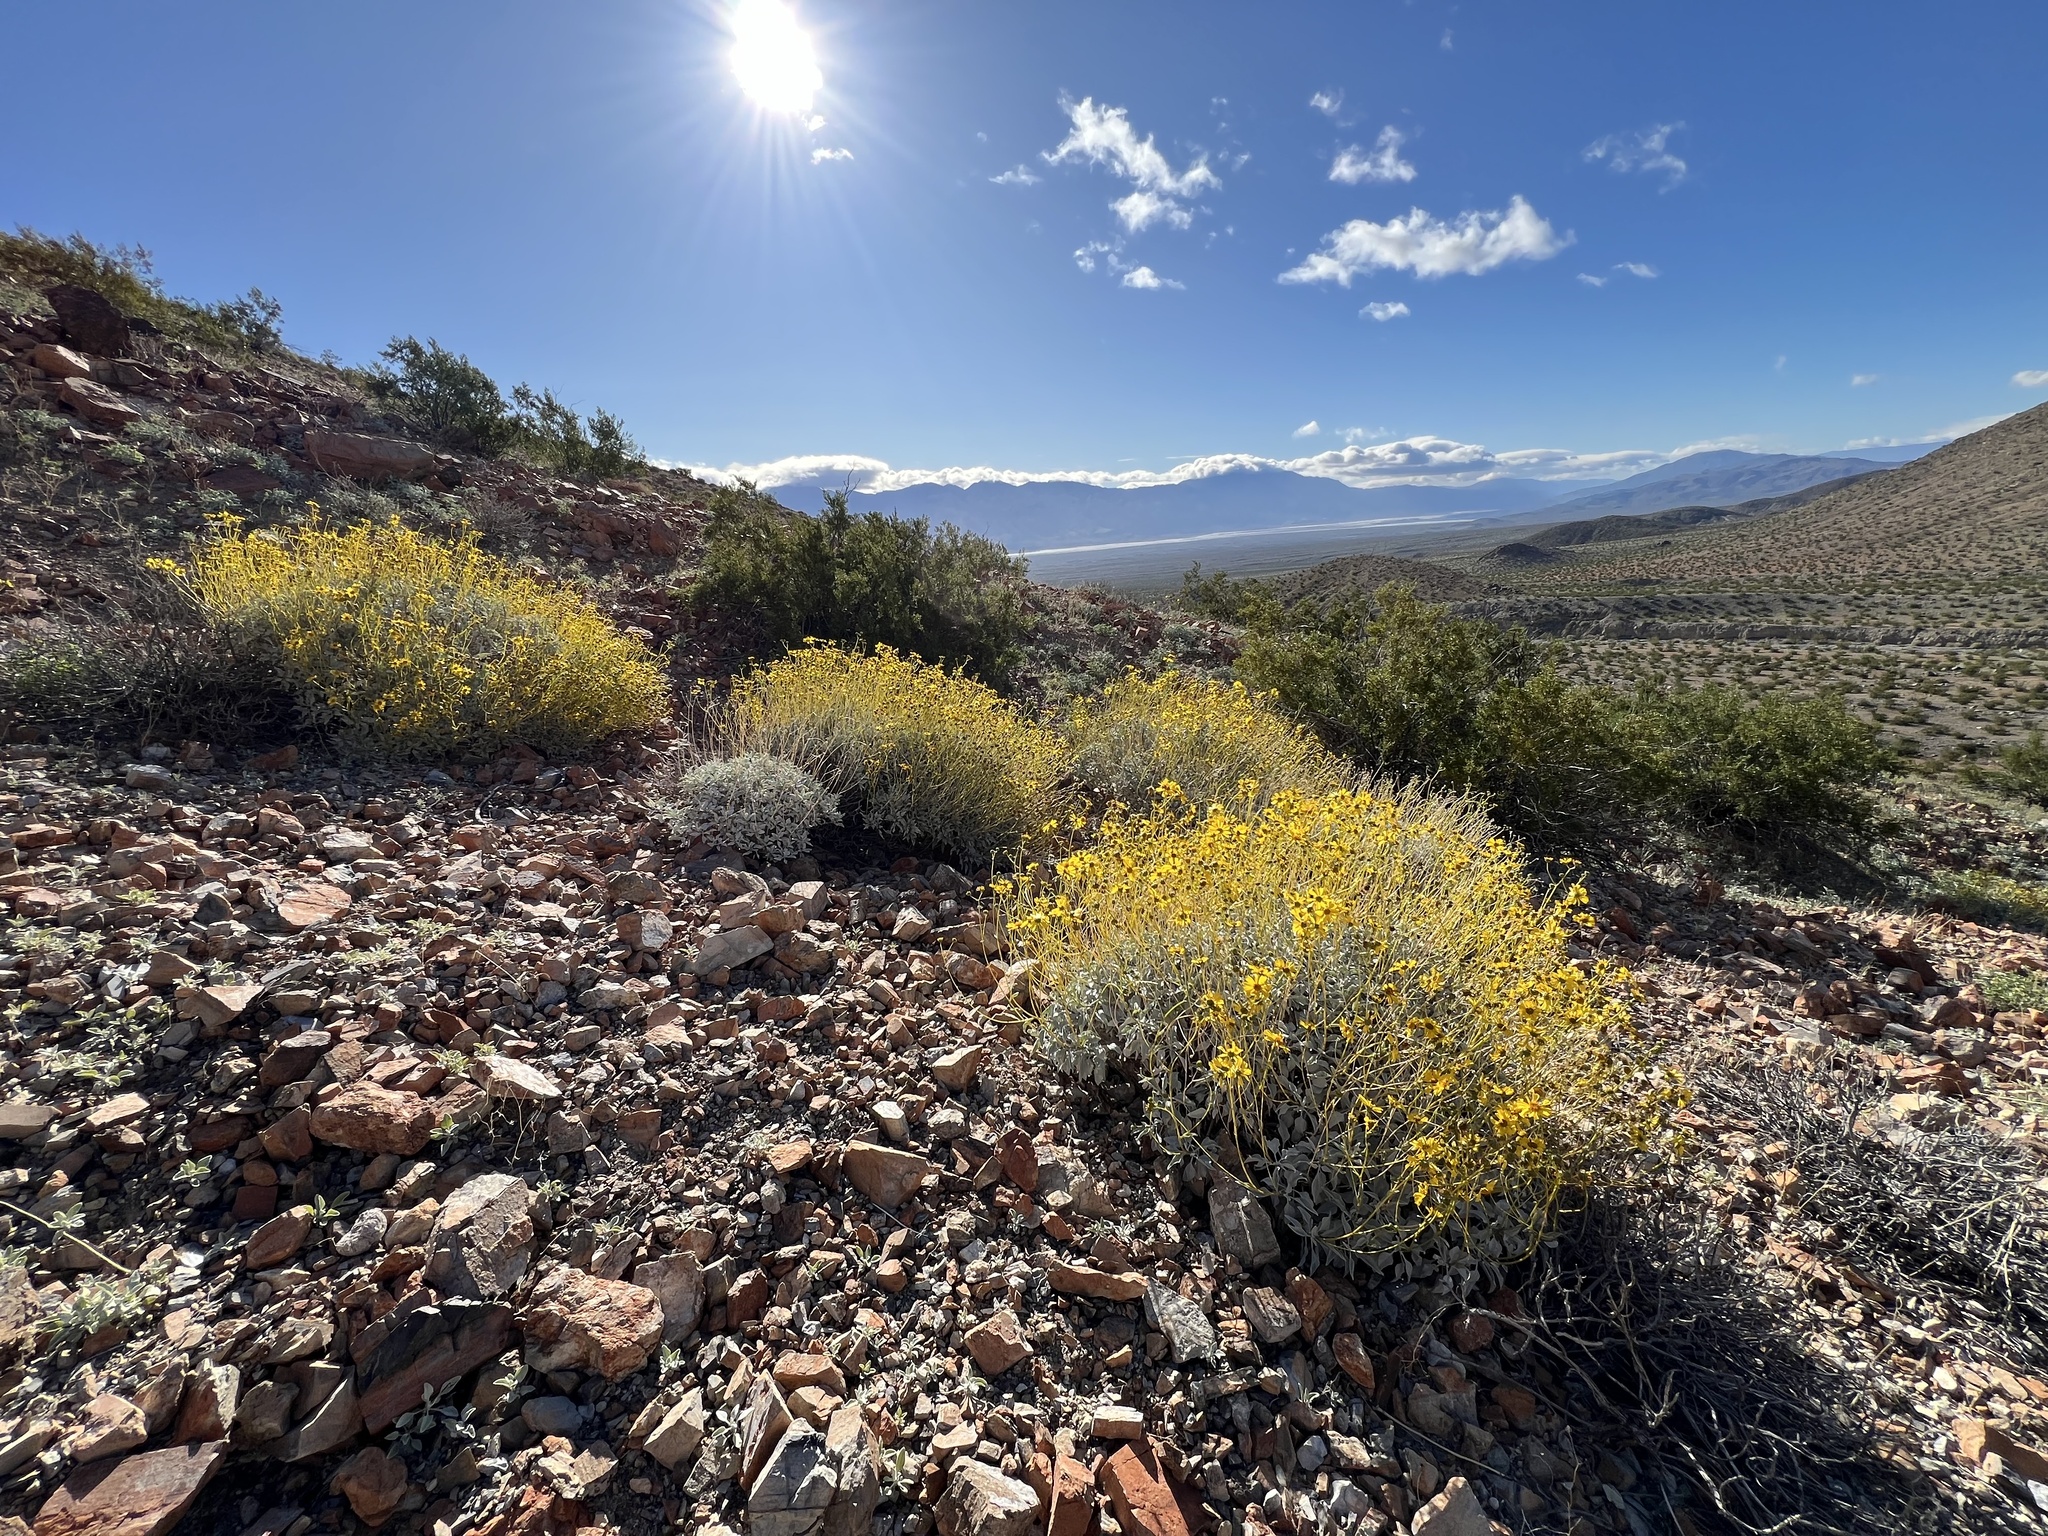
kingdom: Plantae
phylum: Tracheophyta
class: Magnoliopsida
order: Asterales
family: Asteraceae
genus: Encelia
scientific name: Encelia farinosa
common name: Brittlebush
